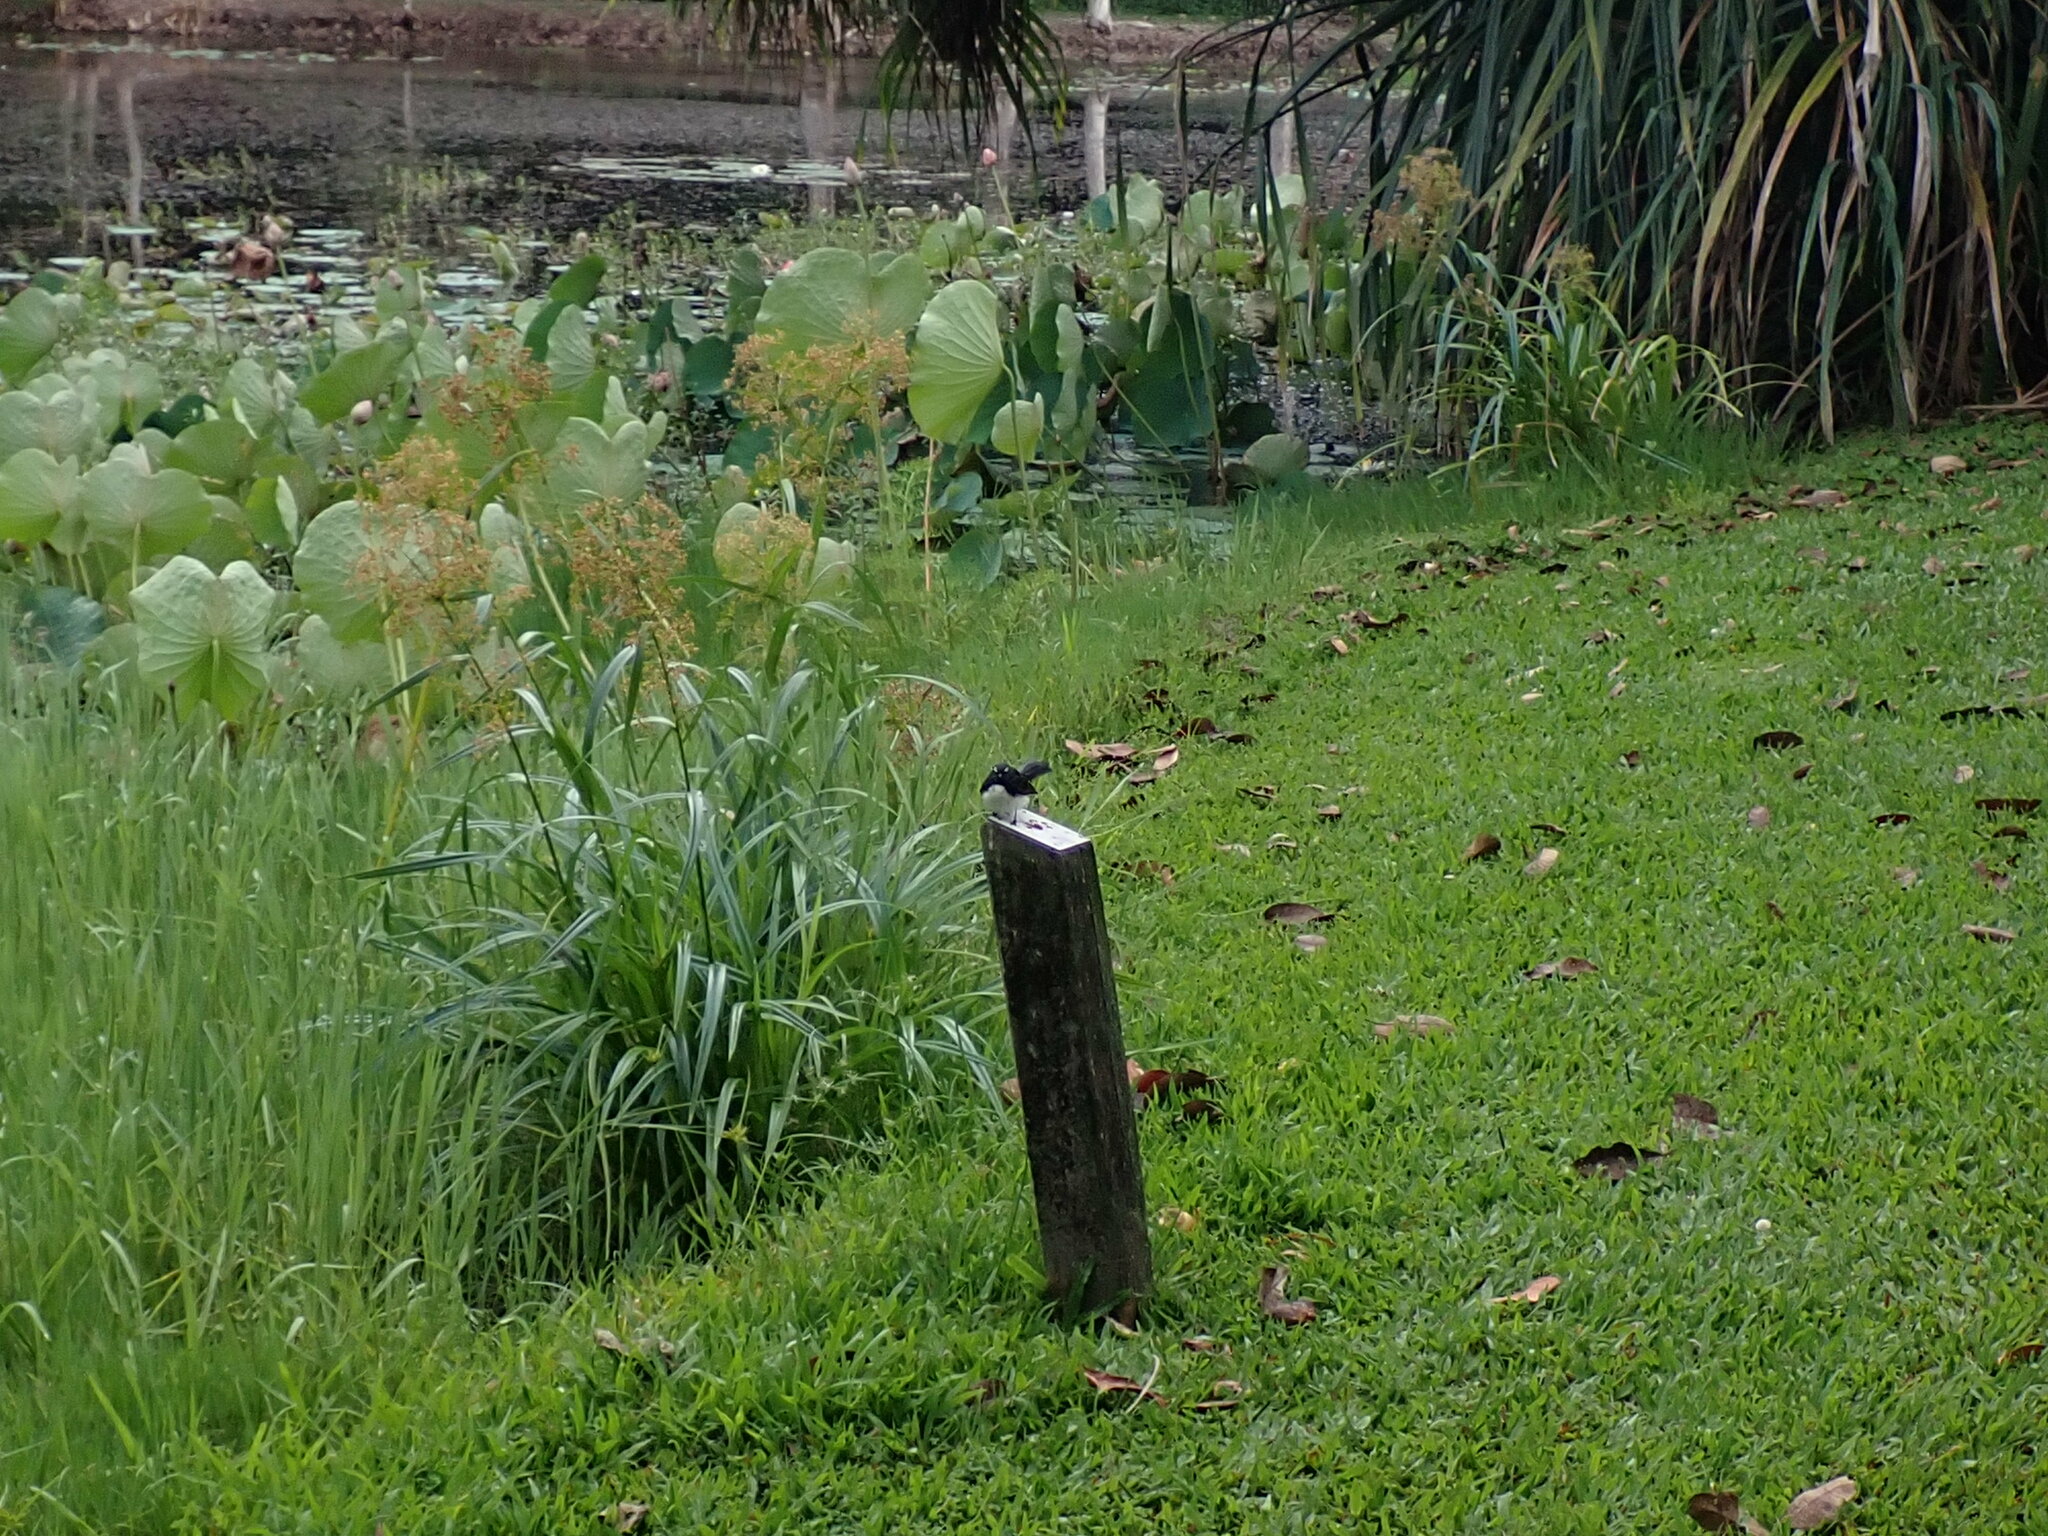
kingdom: Animalia
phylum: Chordata
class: Aves
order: Passeriformes
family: Rhipiduridae
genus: Rhipidura
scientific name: Rhipidura leucophrys
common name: Willie wagtail
